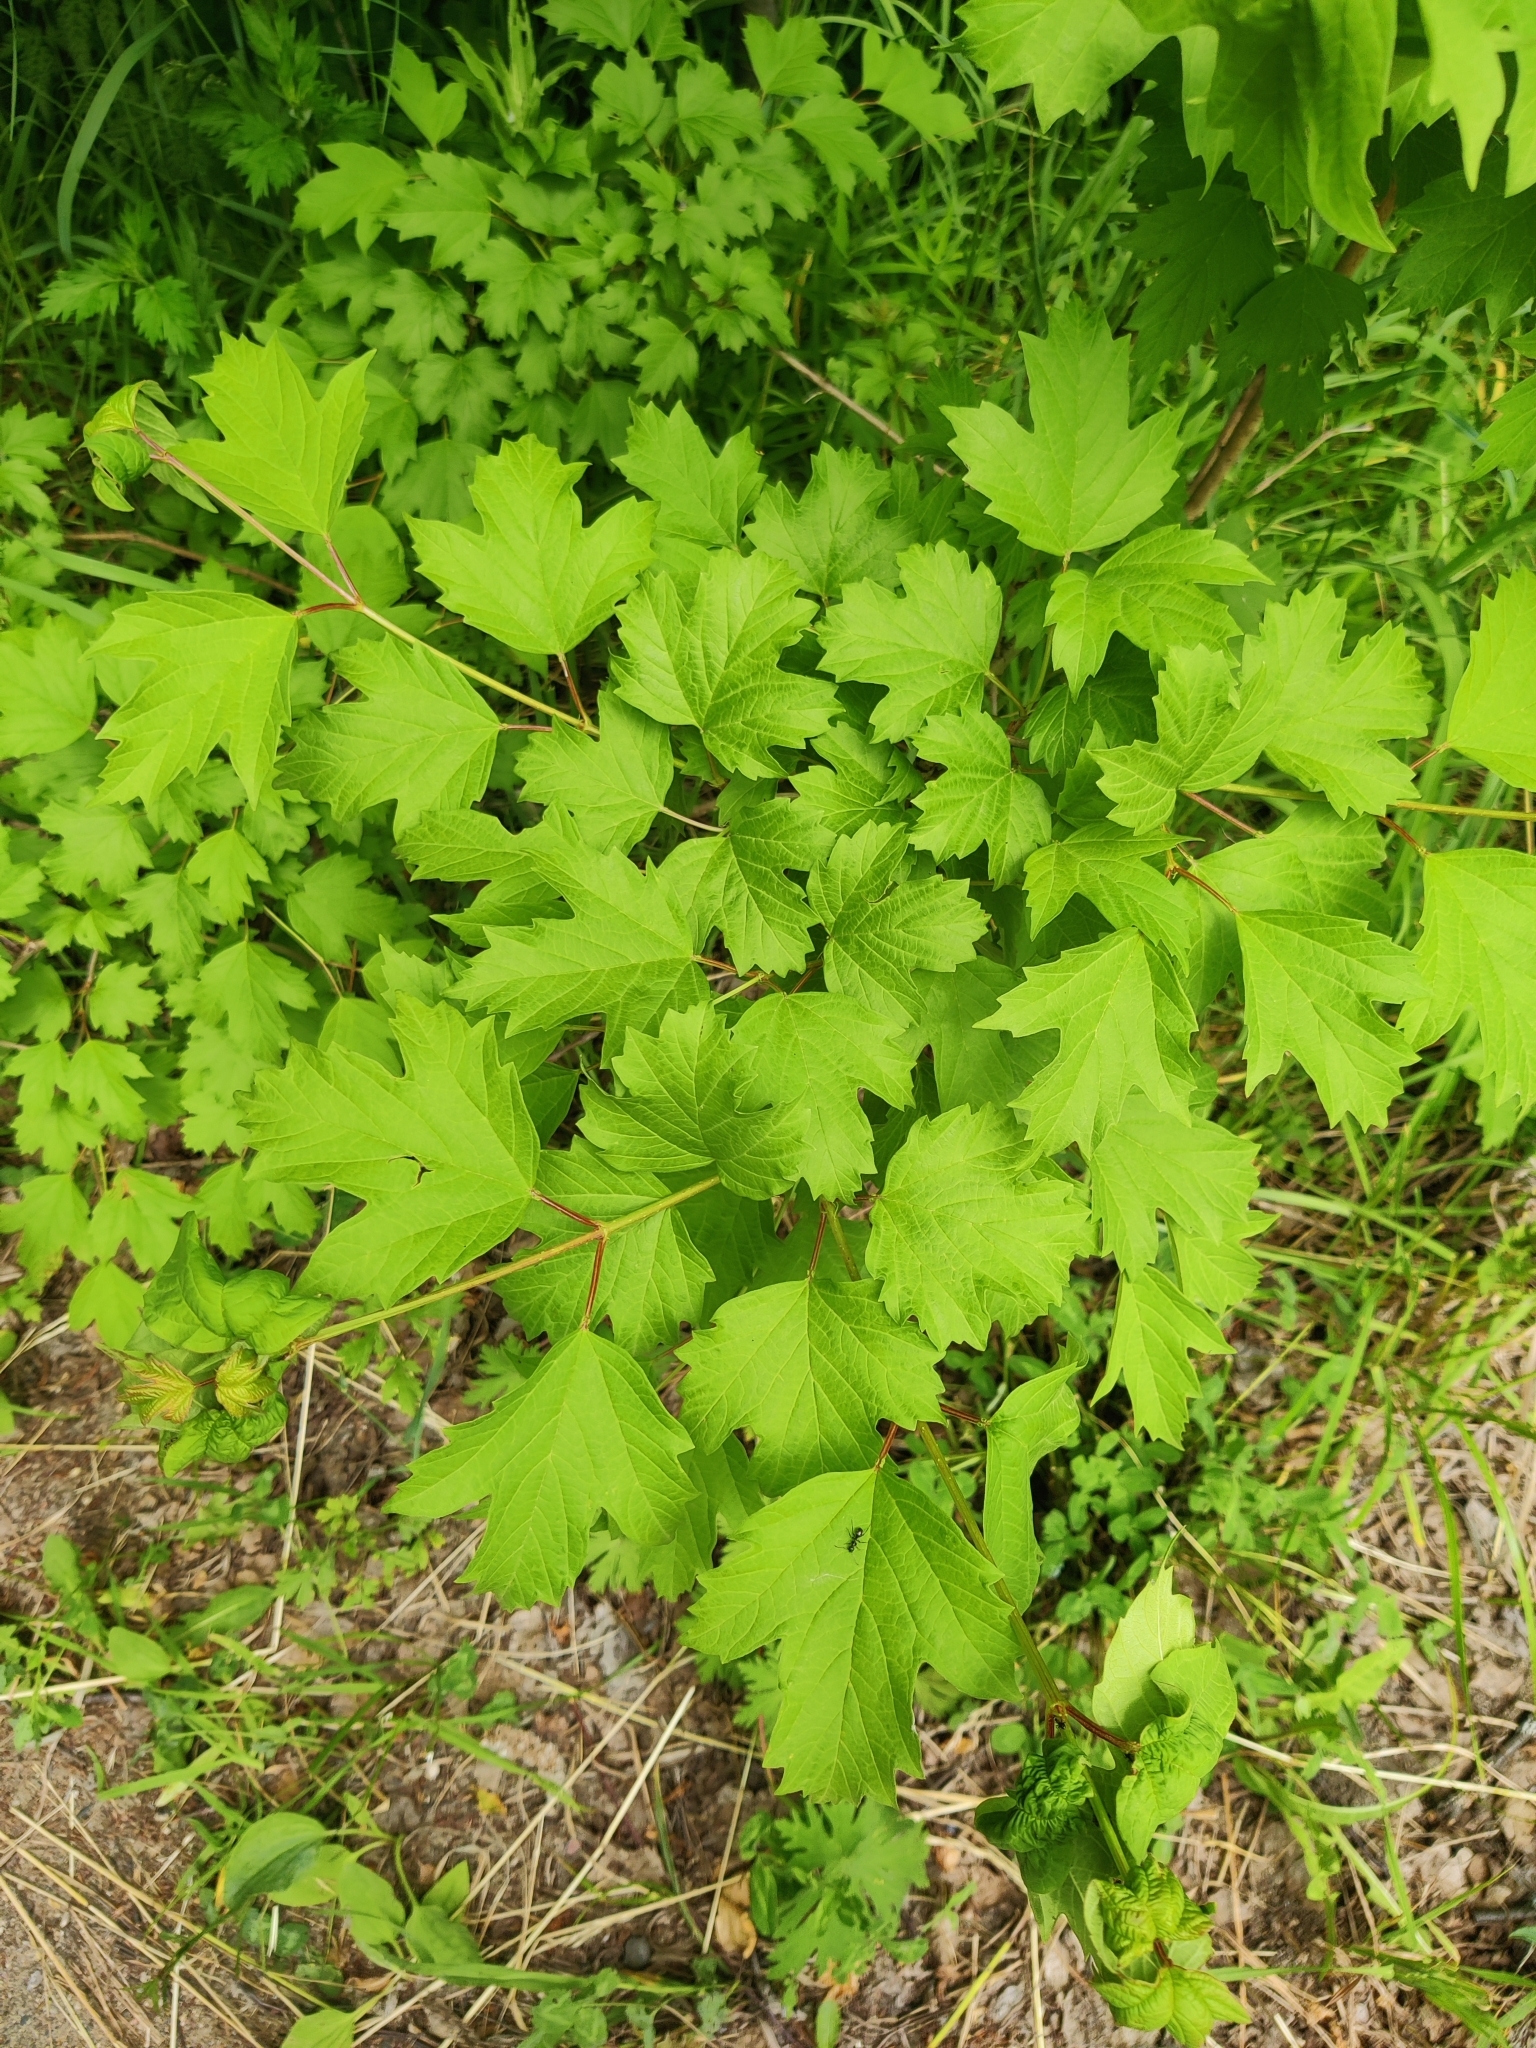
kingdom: Plantae
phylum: Tracheophyta
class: Magnoliopsida
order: Dipsacales
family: Viburnaceae
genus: Viburnum
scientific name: Viburnum opulus
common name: Guelder-rose
